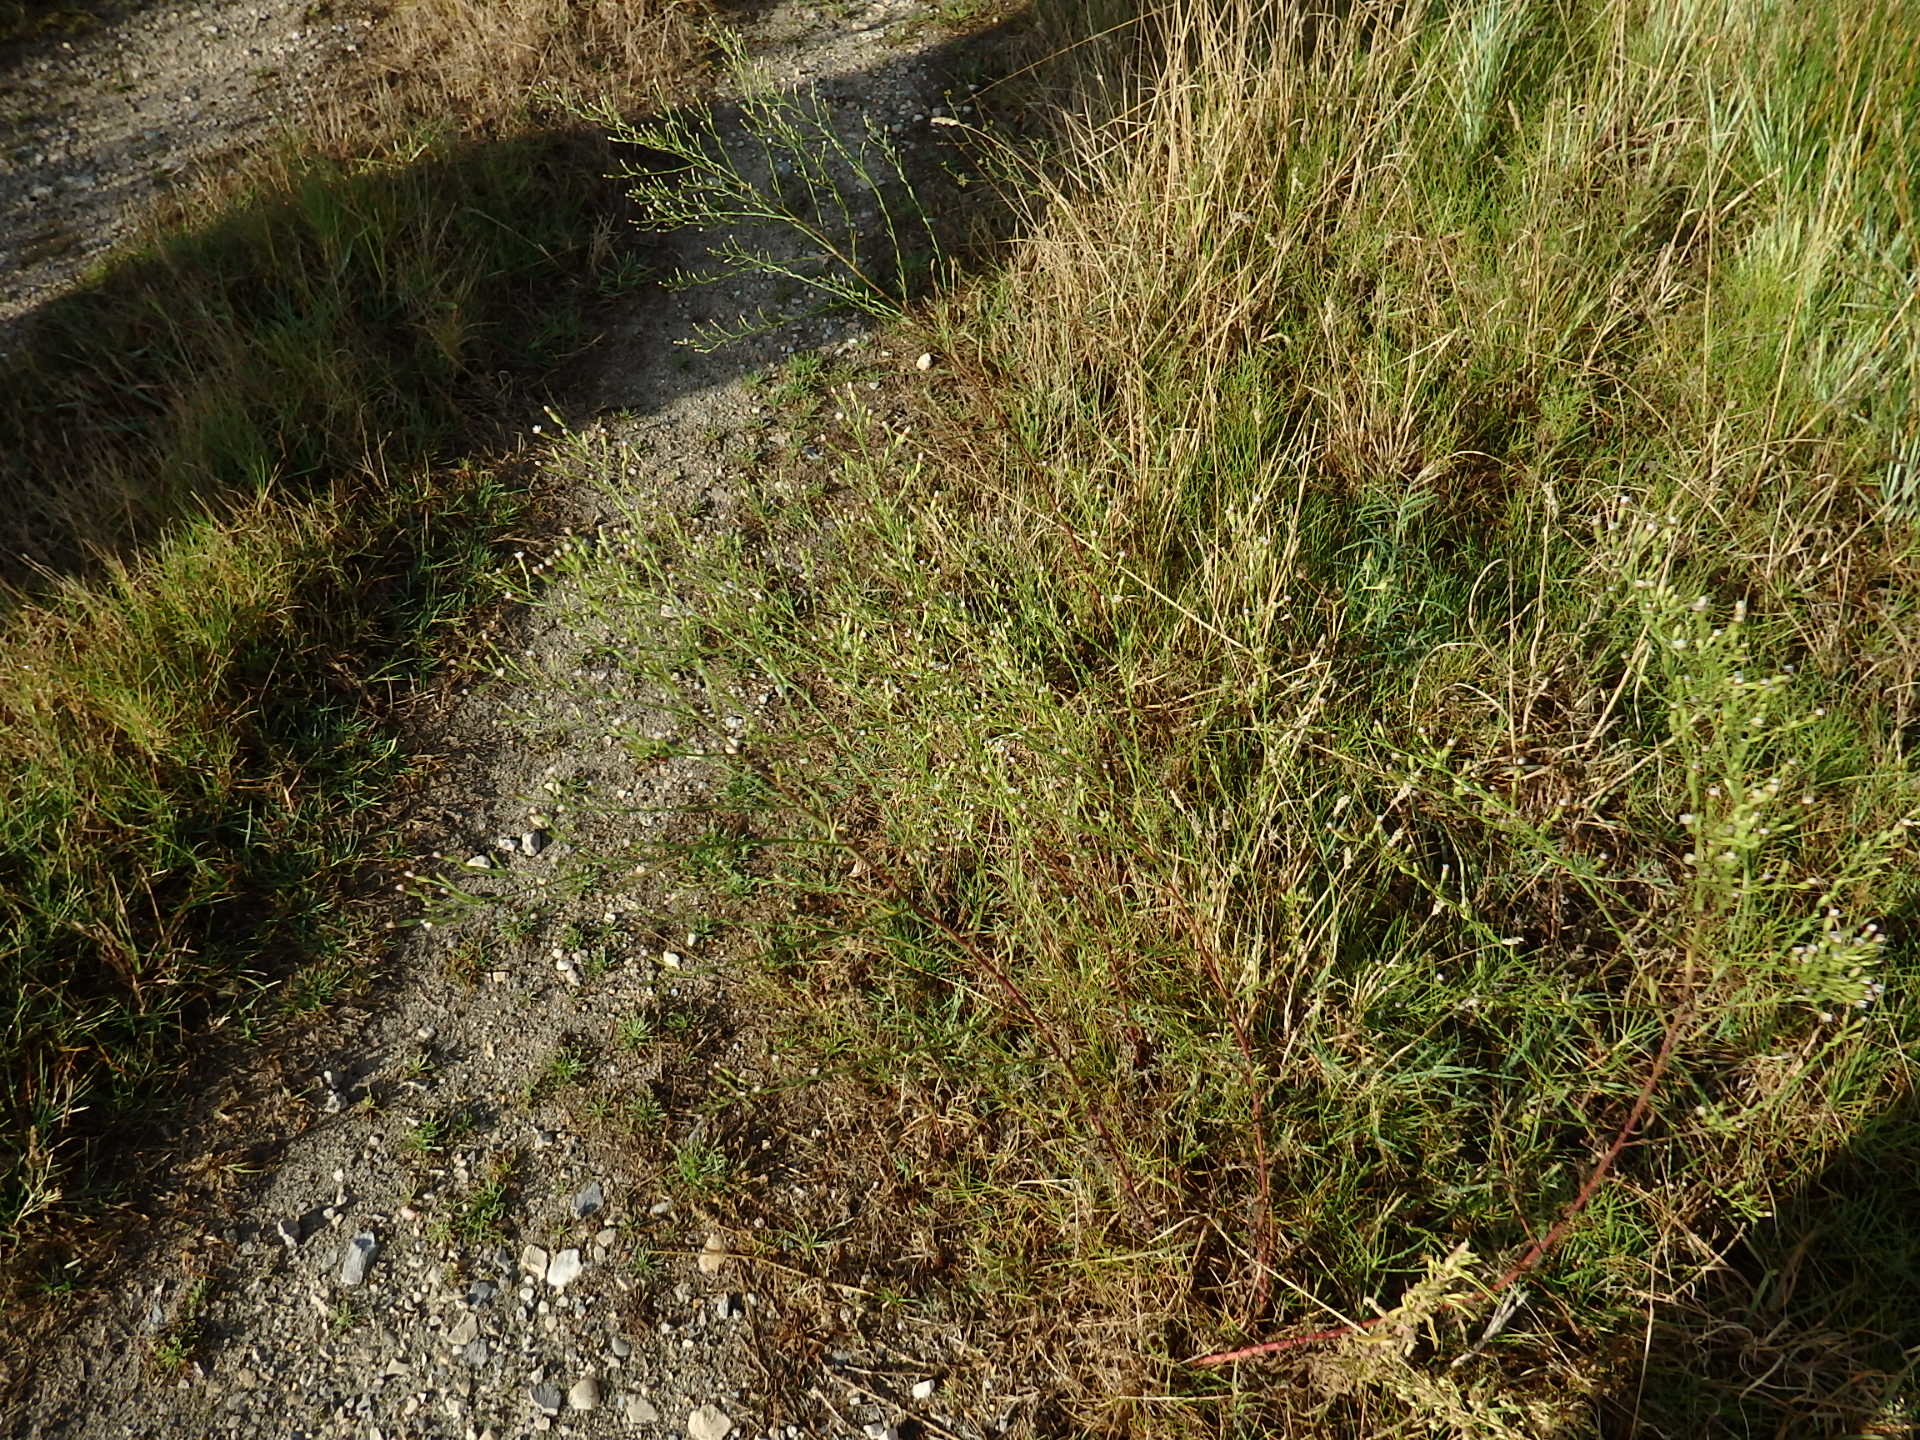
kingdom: Plantae
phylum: Tracheophyta
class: Magnoliopsida
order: Asterales
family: Asteraceae
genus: Symphyotrichum
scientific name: Symphyotrichum squamatum
